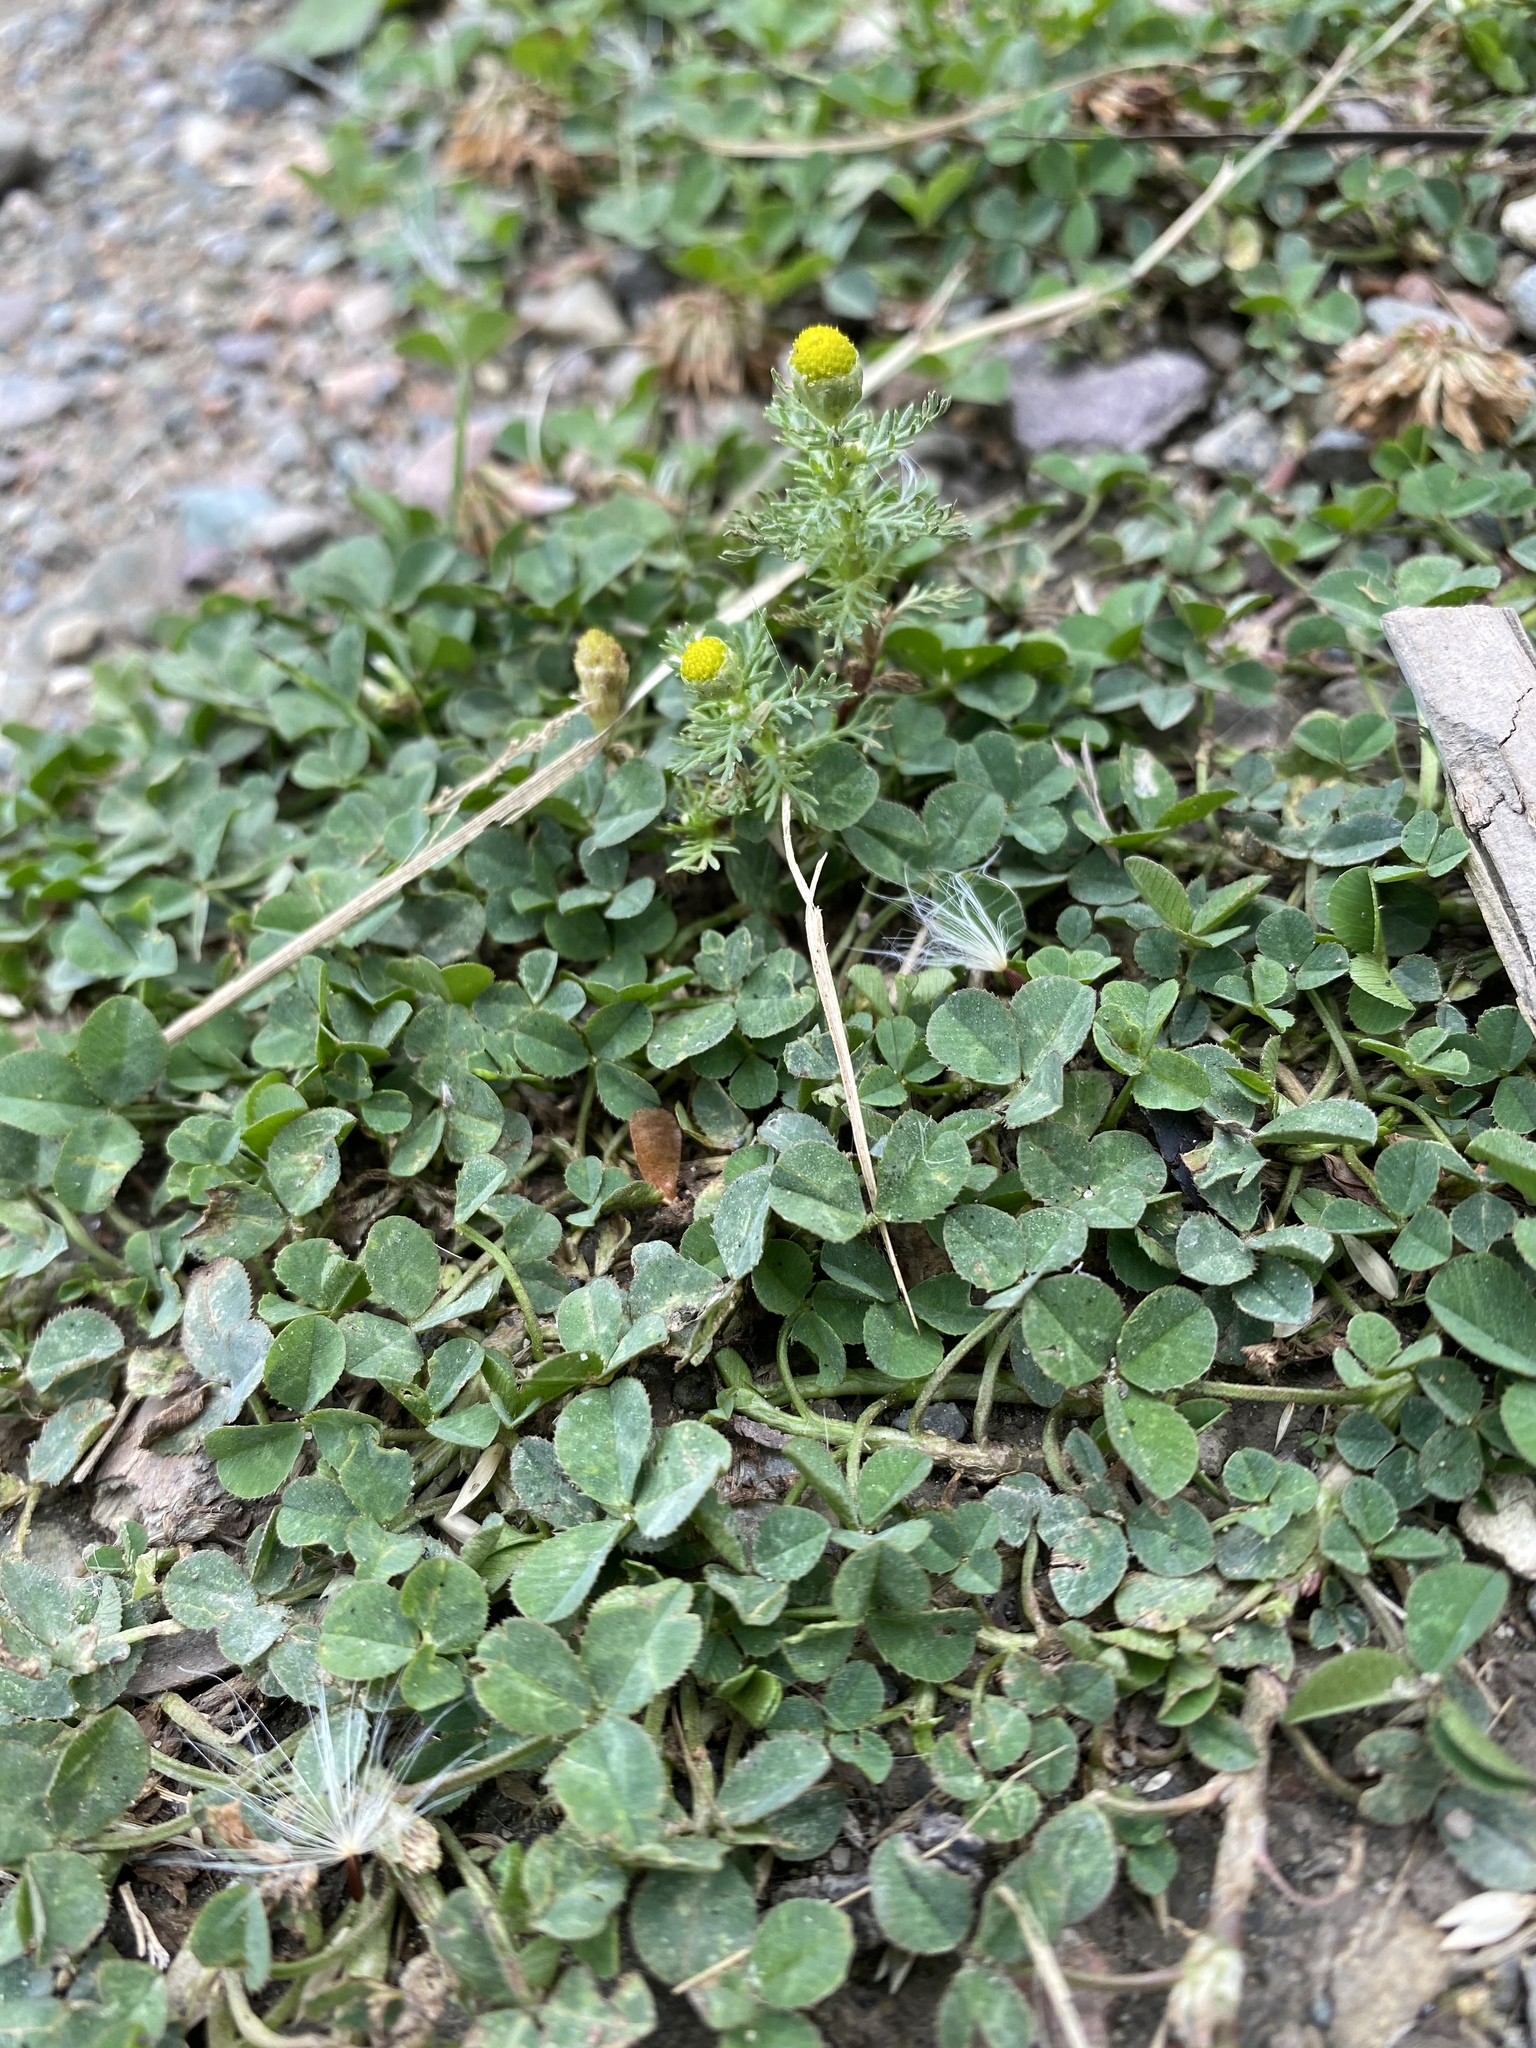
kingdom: Plantae
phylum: Tracheophyta
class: Magnoliopsida
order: Asterales
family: Asteraceae
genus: Matricaria
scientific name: Matricaria discoidea
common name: Disc mayweed
